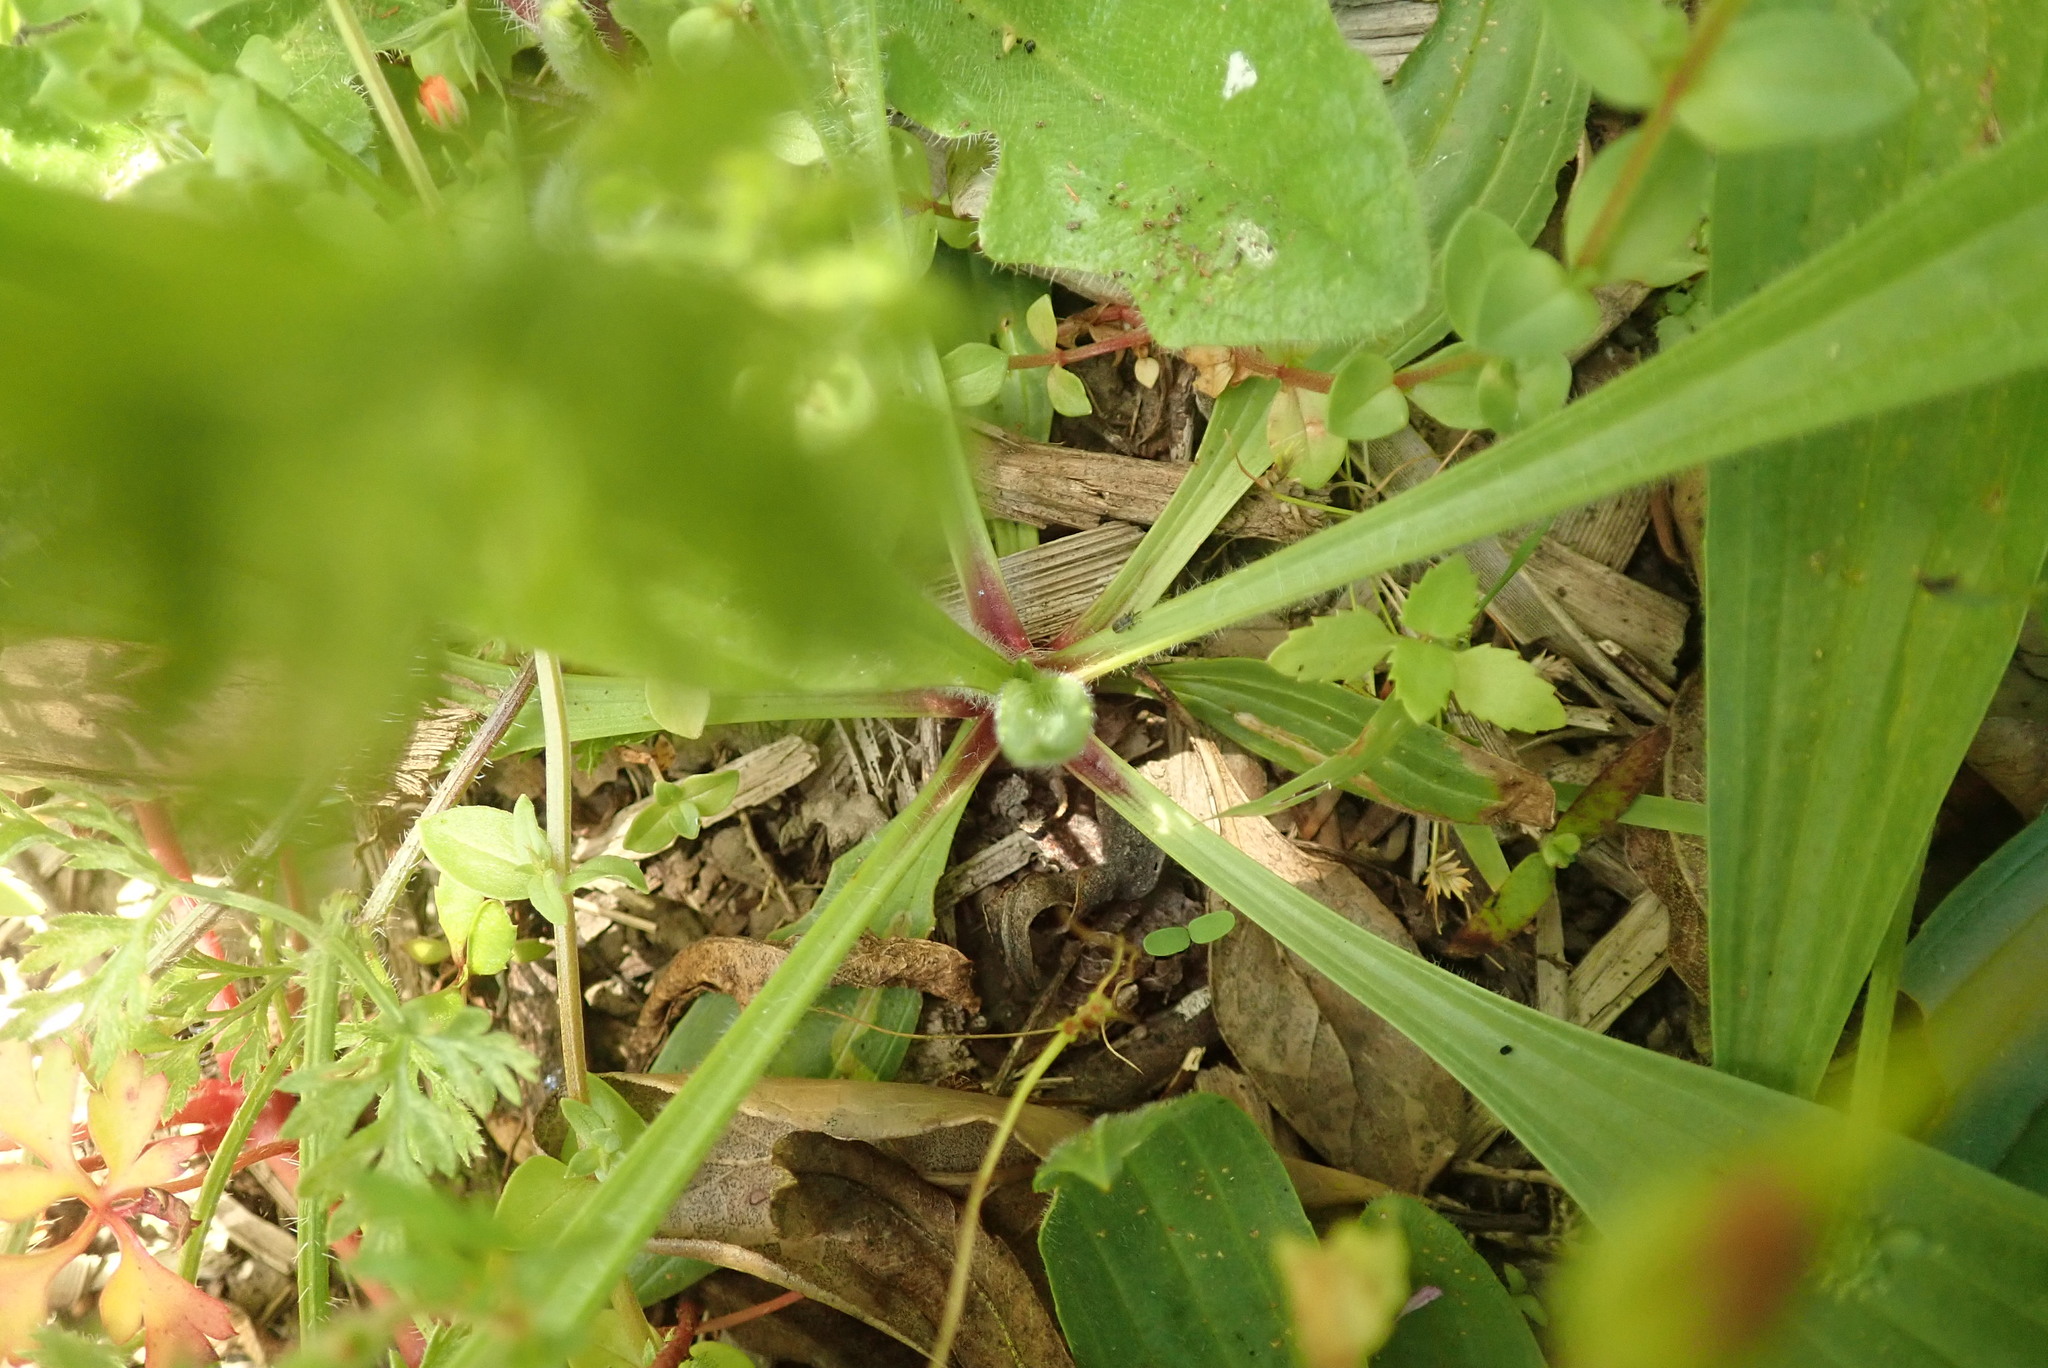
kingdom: Plantae
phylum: Tracheophyta
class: Magnoliopsida
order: Lamiales
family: Plantaginaceae
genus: Plantago
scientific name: Plantago lanceolata
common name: Ribwort plantain
